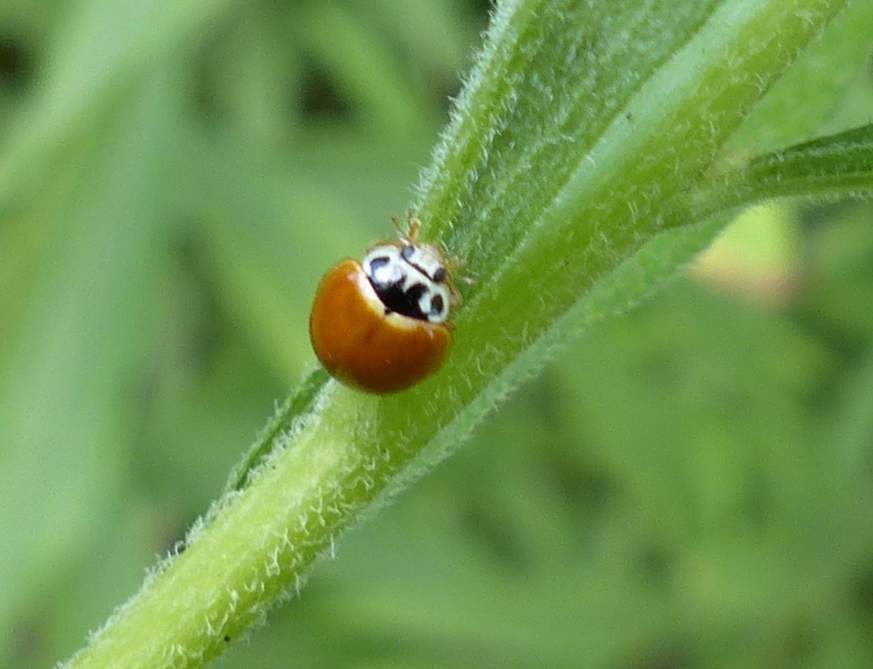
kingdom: Animalia
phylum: Arthropoda
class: Insecta
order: Coleoptera
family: Coccinellidae
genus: Cycloneda
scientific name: Cycloneda munda
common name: Polished lady beetle
